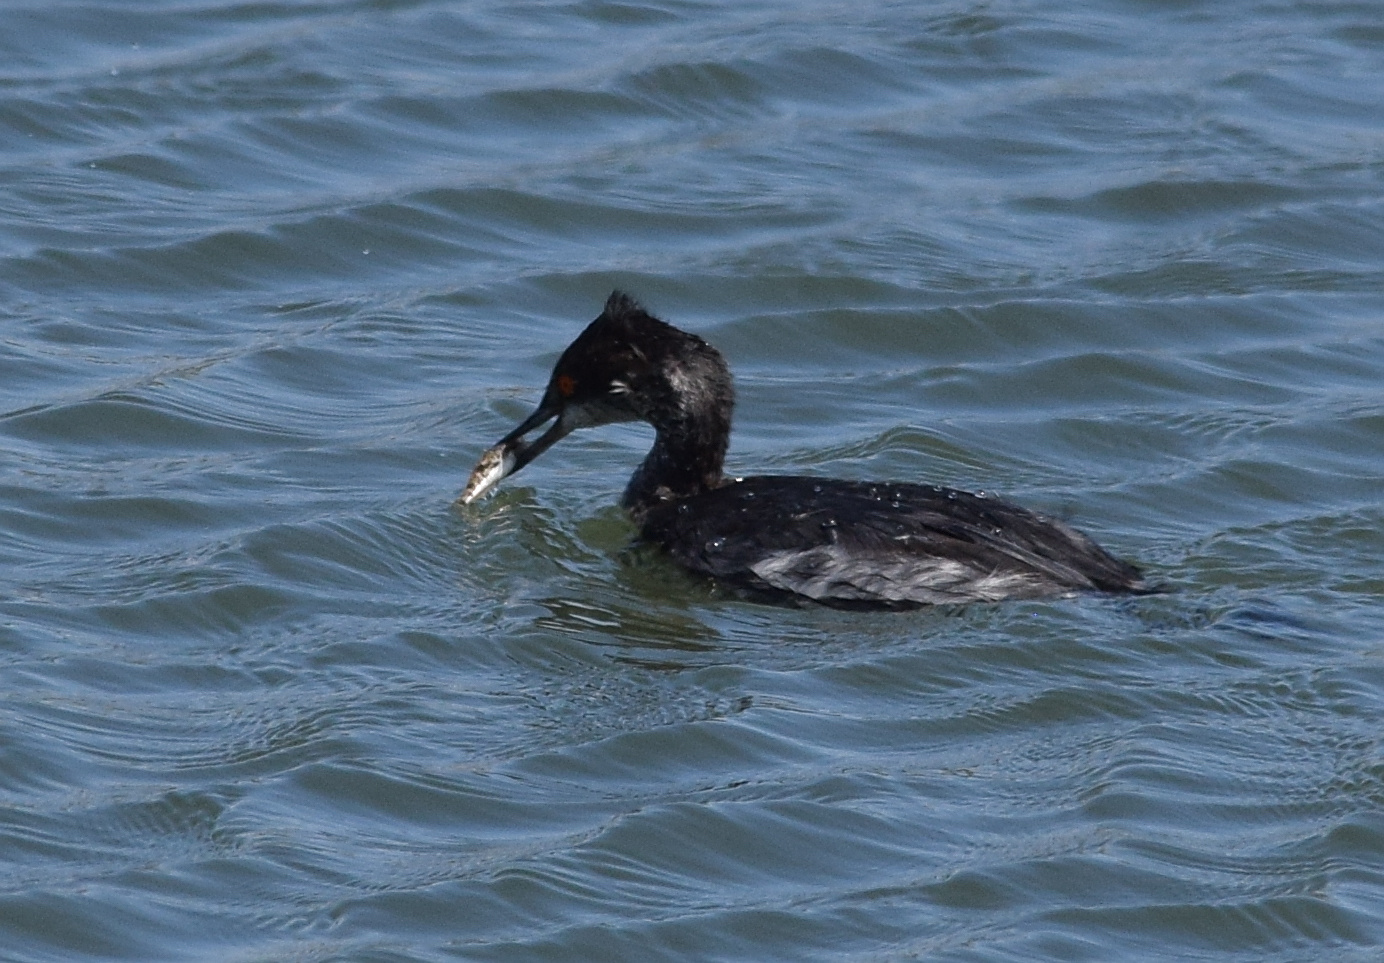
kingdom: Animalia
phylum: Chordata
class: Aves
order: Podicipediformes
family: Podicipedidae
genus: Podiceps
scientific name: Podiceps nigricollis
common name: Black-necked grebe
